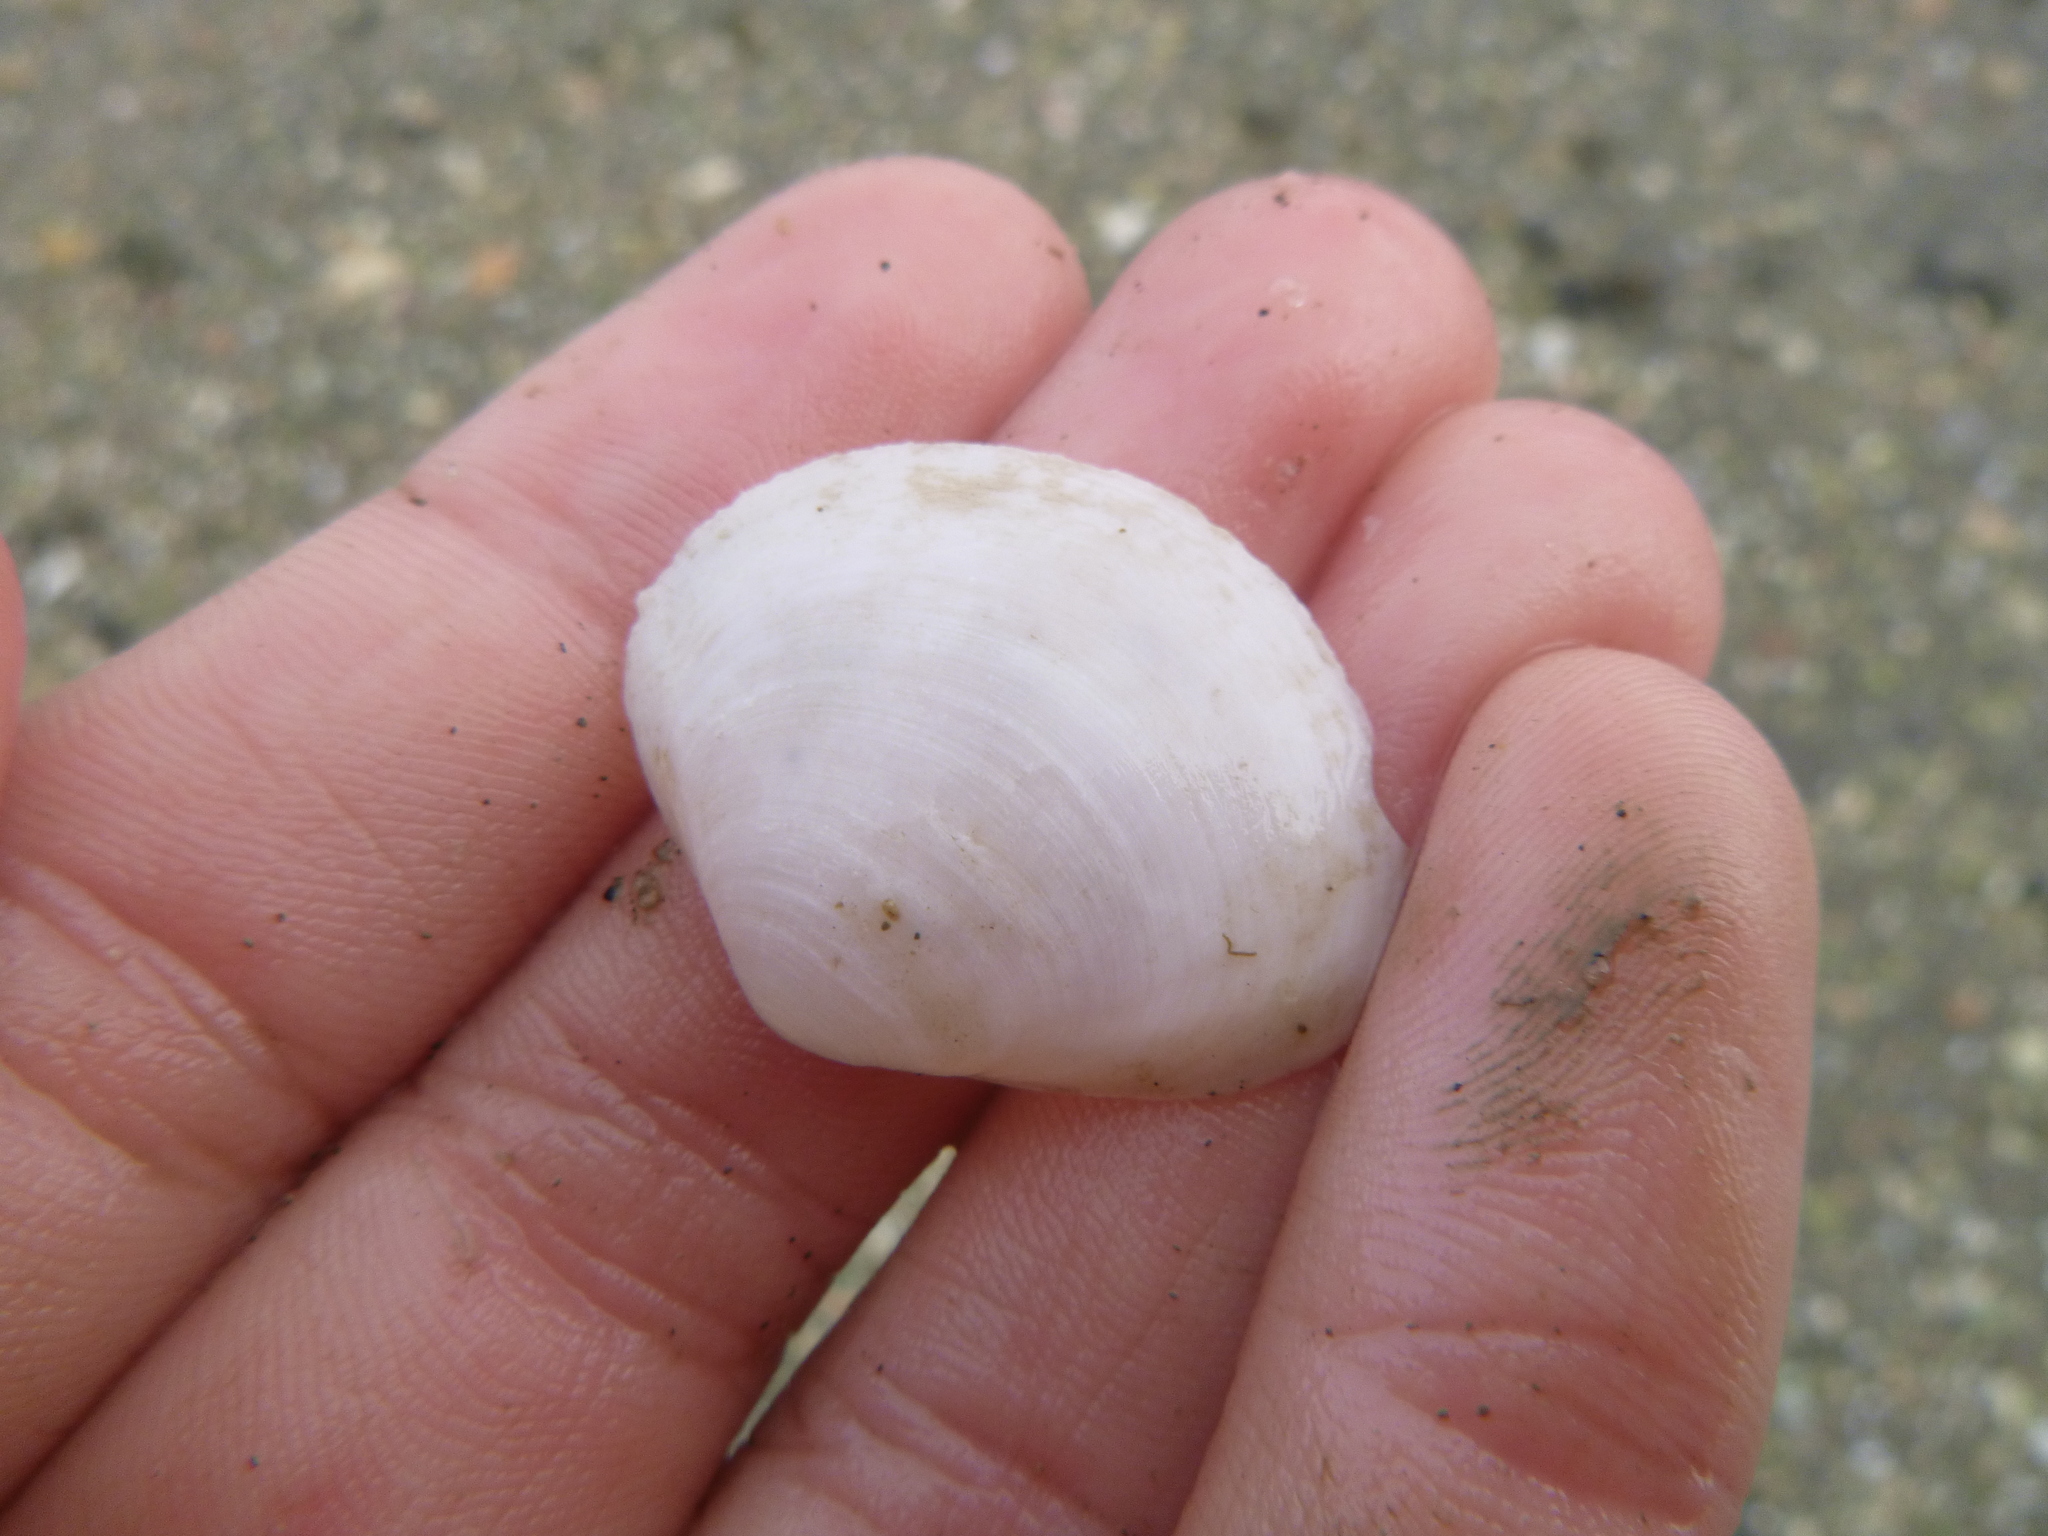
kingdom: Animalia
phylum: Mollusca
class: Bivalvia
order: Venerida
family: Mactridae
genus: Cyclomactra
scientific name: Cyclomactra ovata
